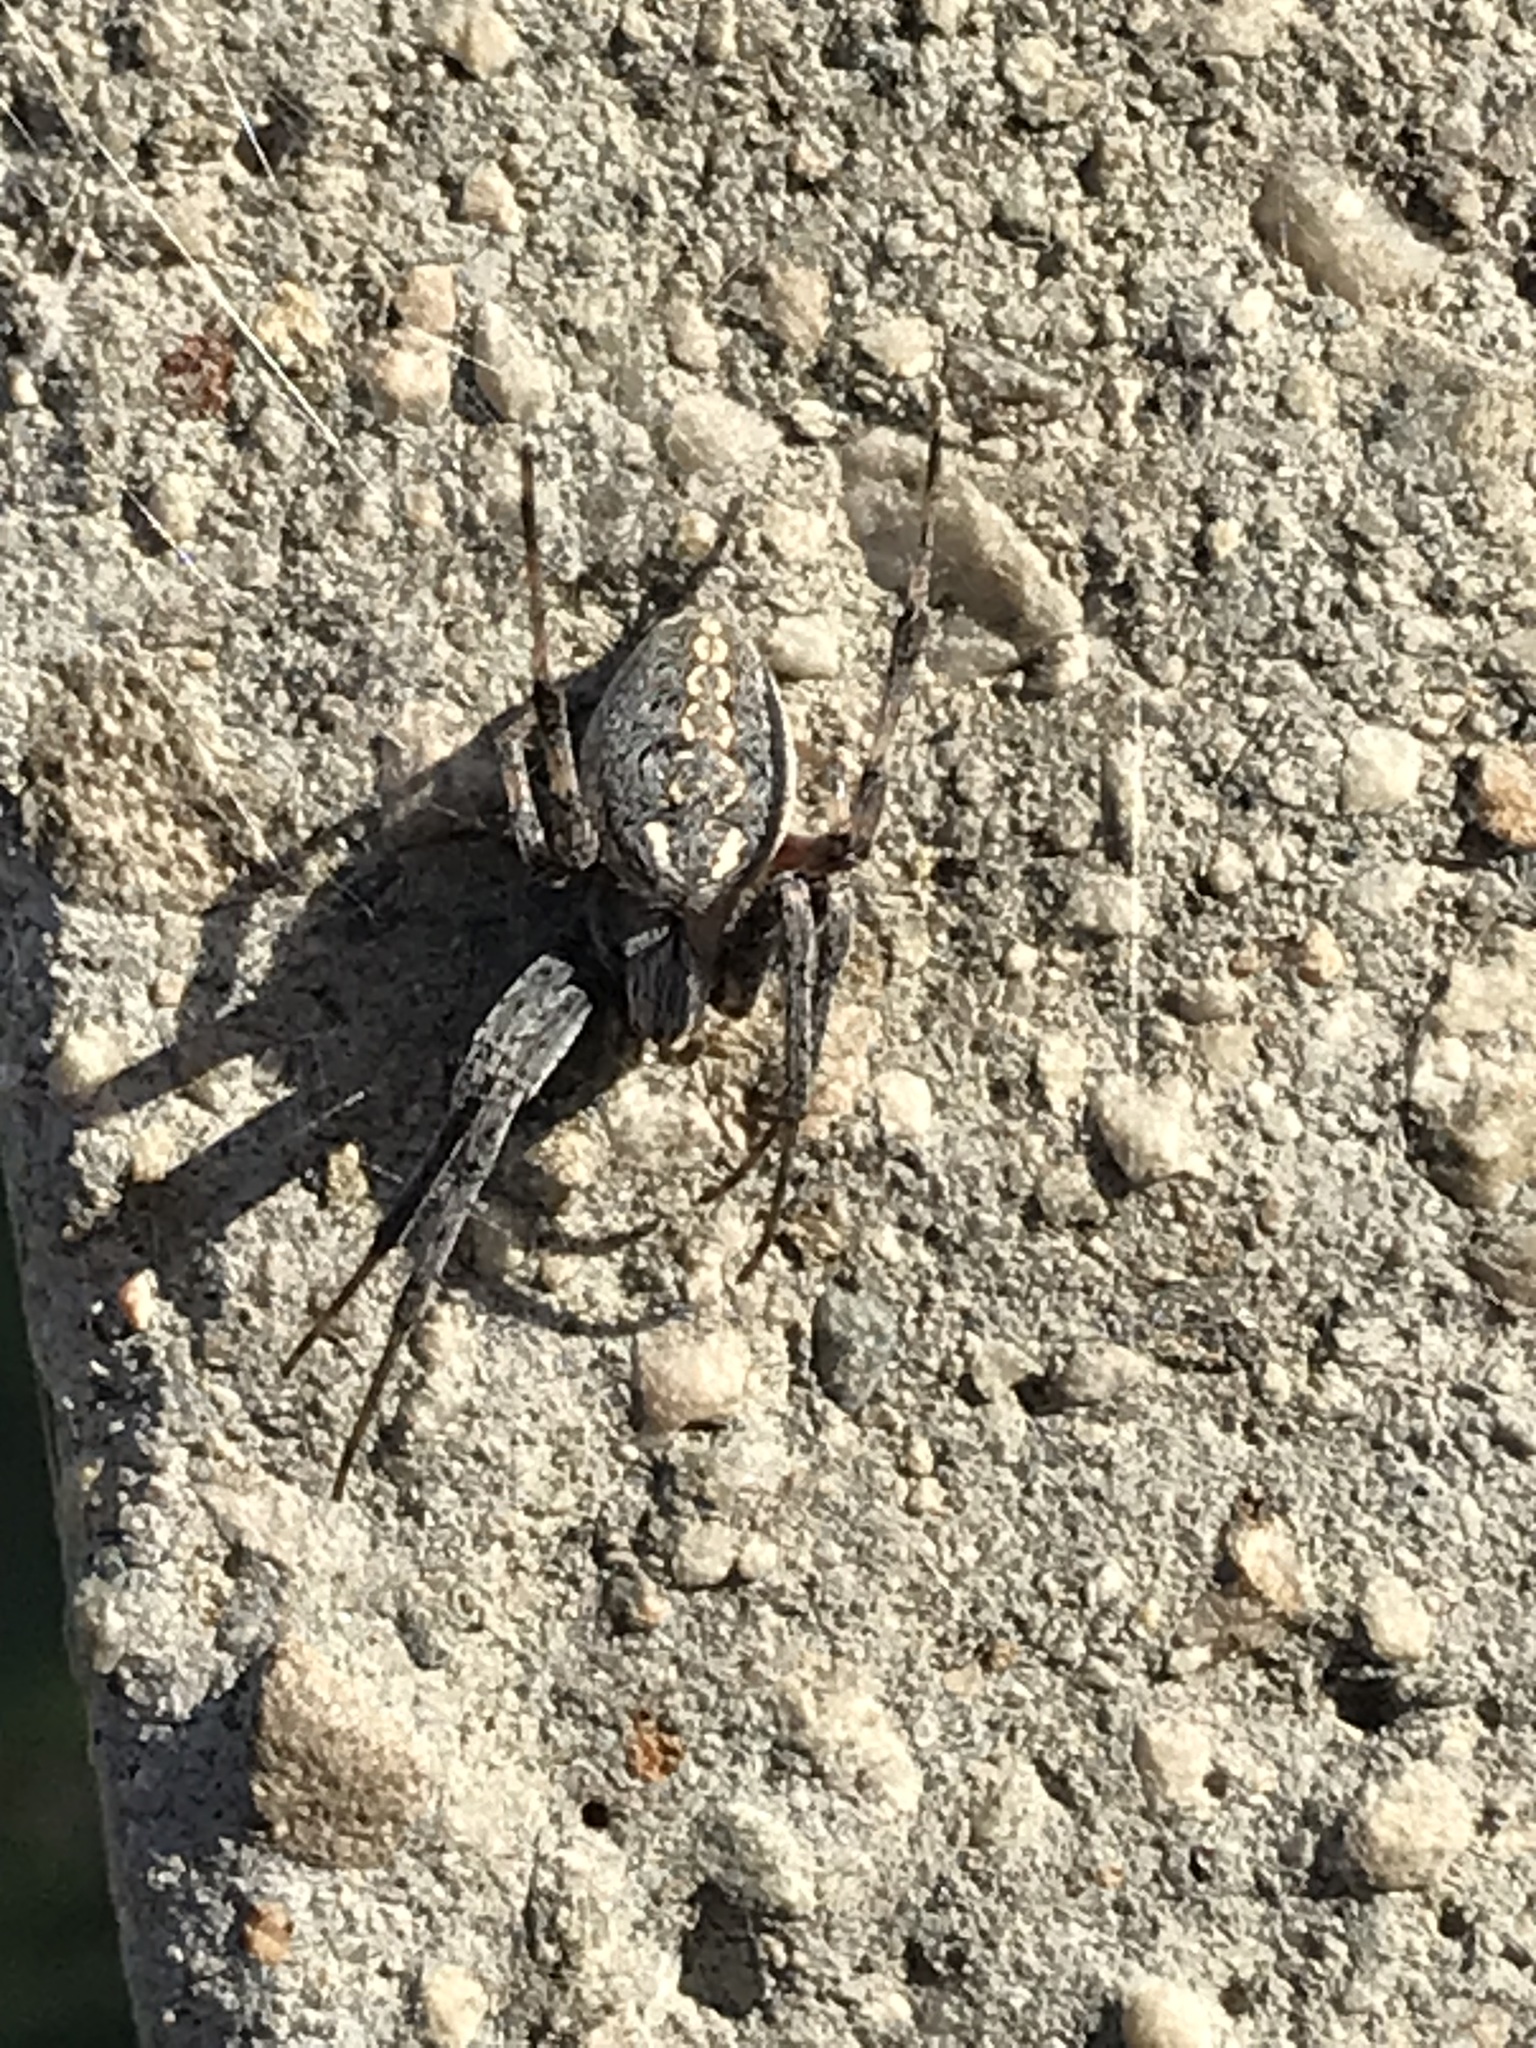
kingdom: Animalia
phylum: Arthropoda
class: Arachnida
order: Araneae
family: Araneidae
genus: Neoscona
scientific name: Neoscona oaxacensis
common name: Orb weavers
